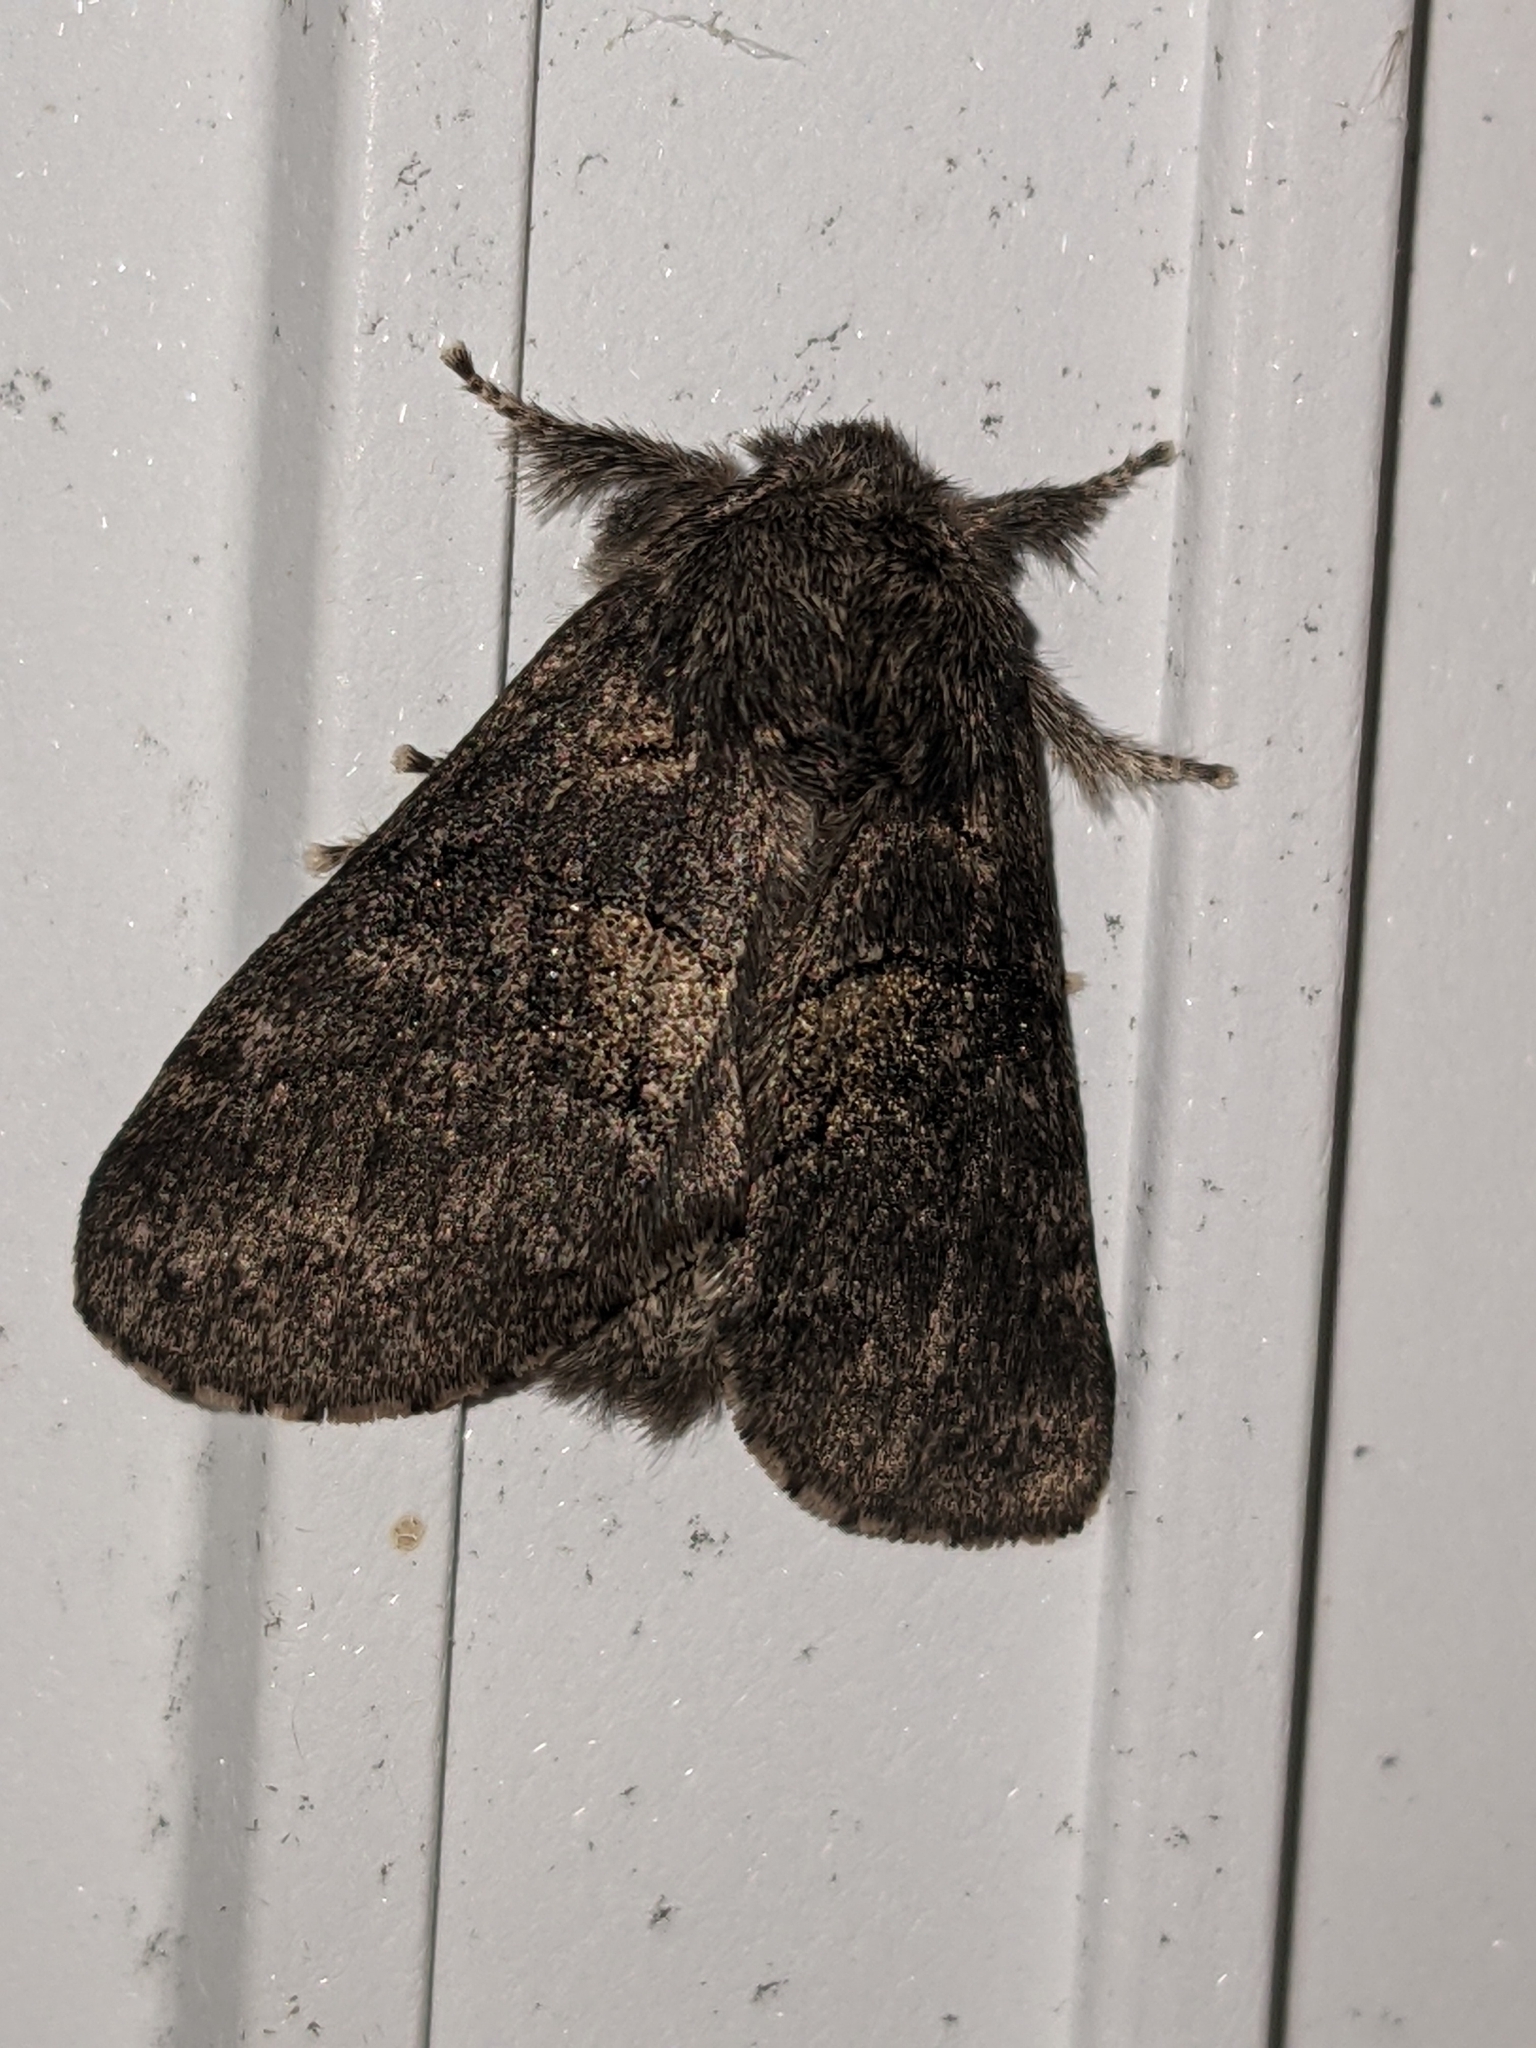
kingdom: Animalia
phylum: Arthropoda
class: Insecta
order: Lepidoptera
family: Notodontidae
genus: Gluphisia
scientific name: Gluphisia septentrionis
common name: Common gluphisia
